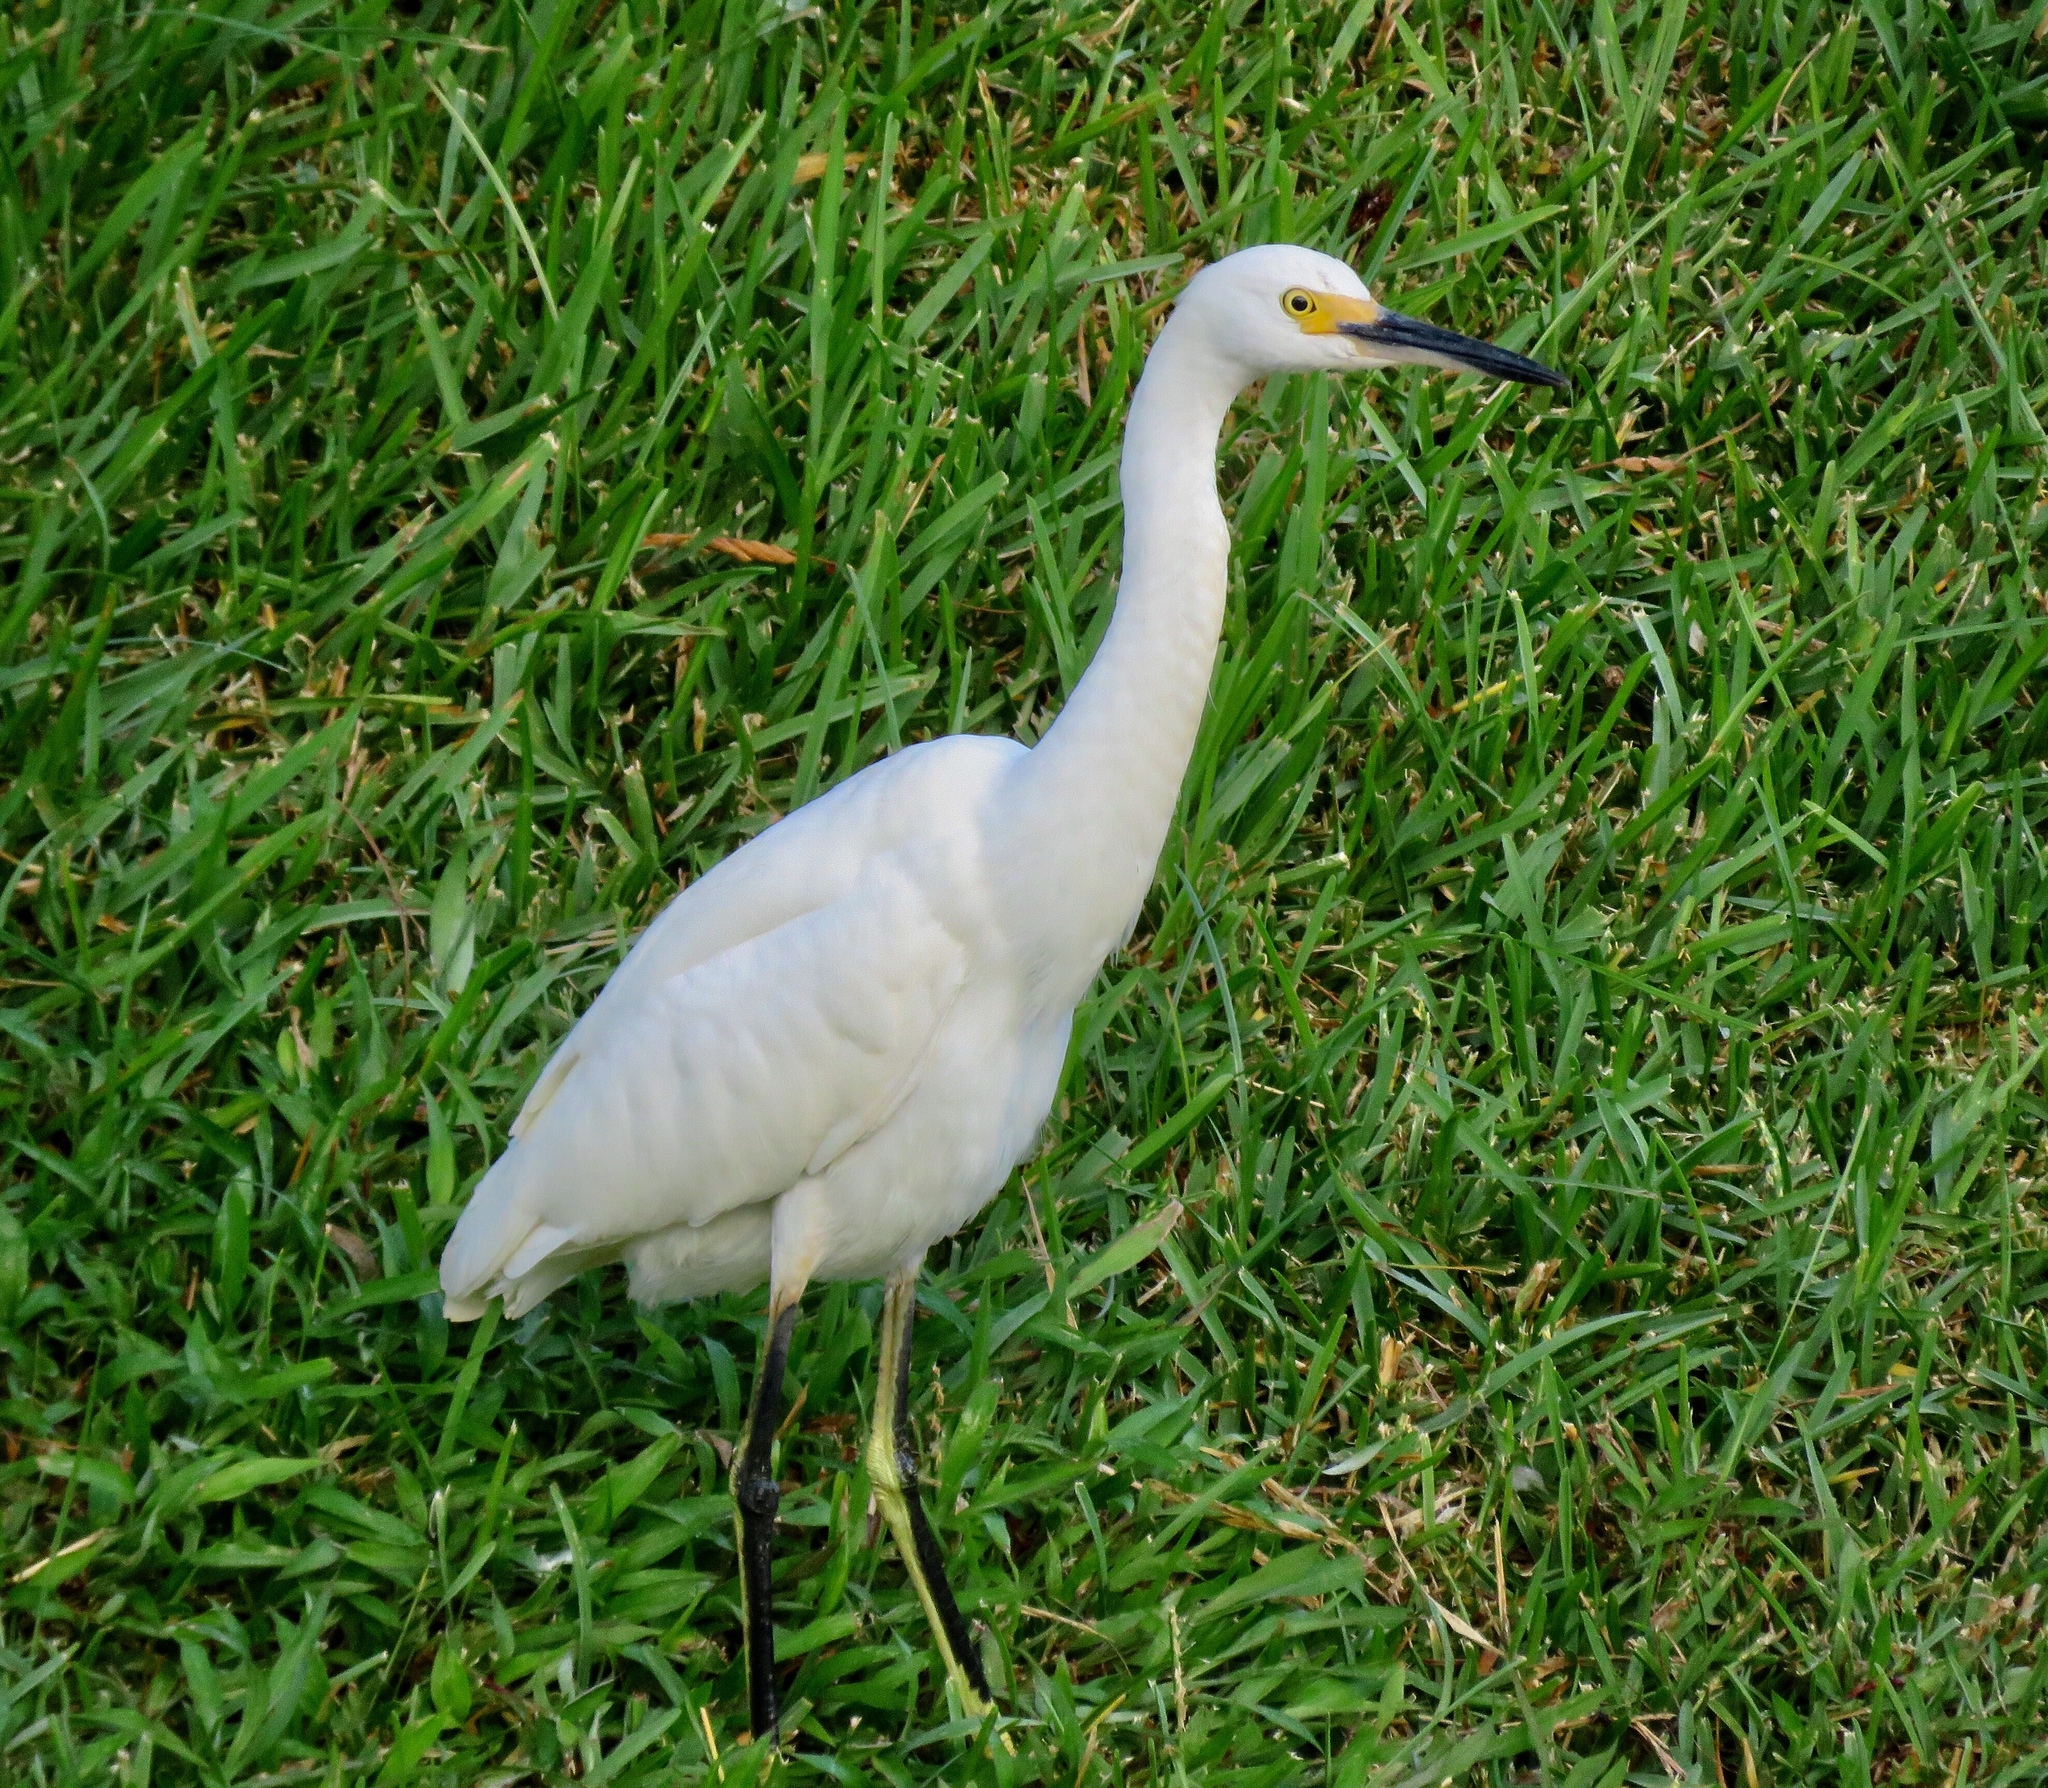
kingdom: Animalia
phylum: Chordata
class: Aves
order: Pelecaniformes
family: Ardeidae
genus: Egretta
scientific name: Egretta thula
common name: Snowy egret
